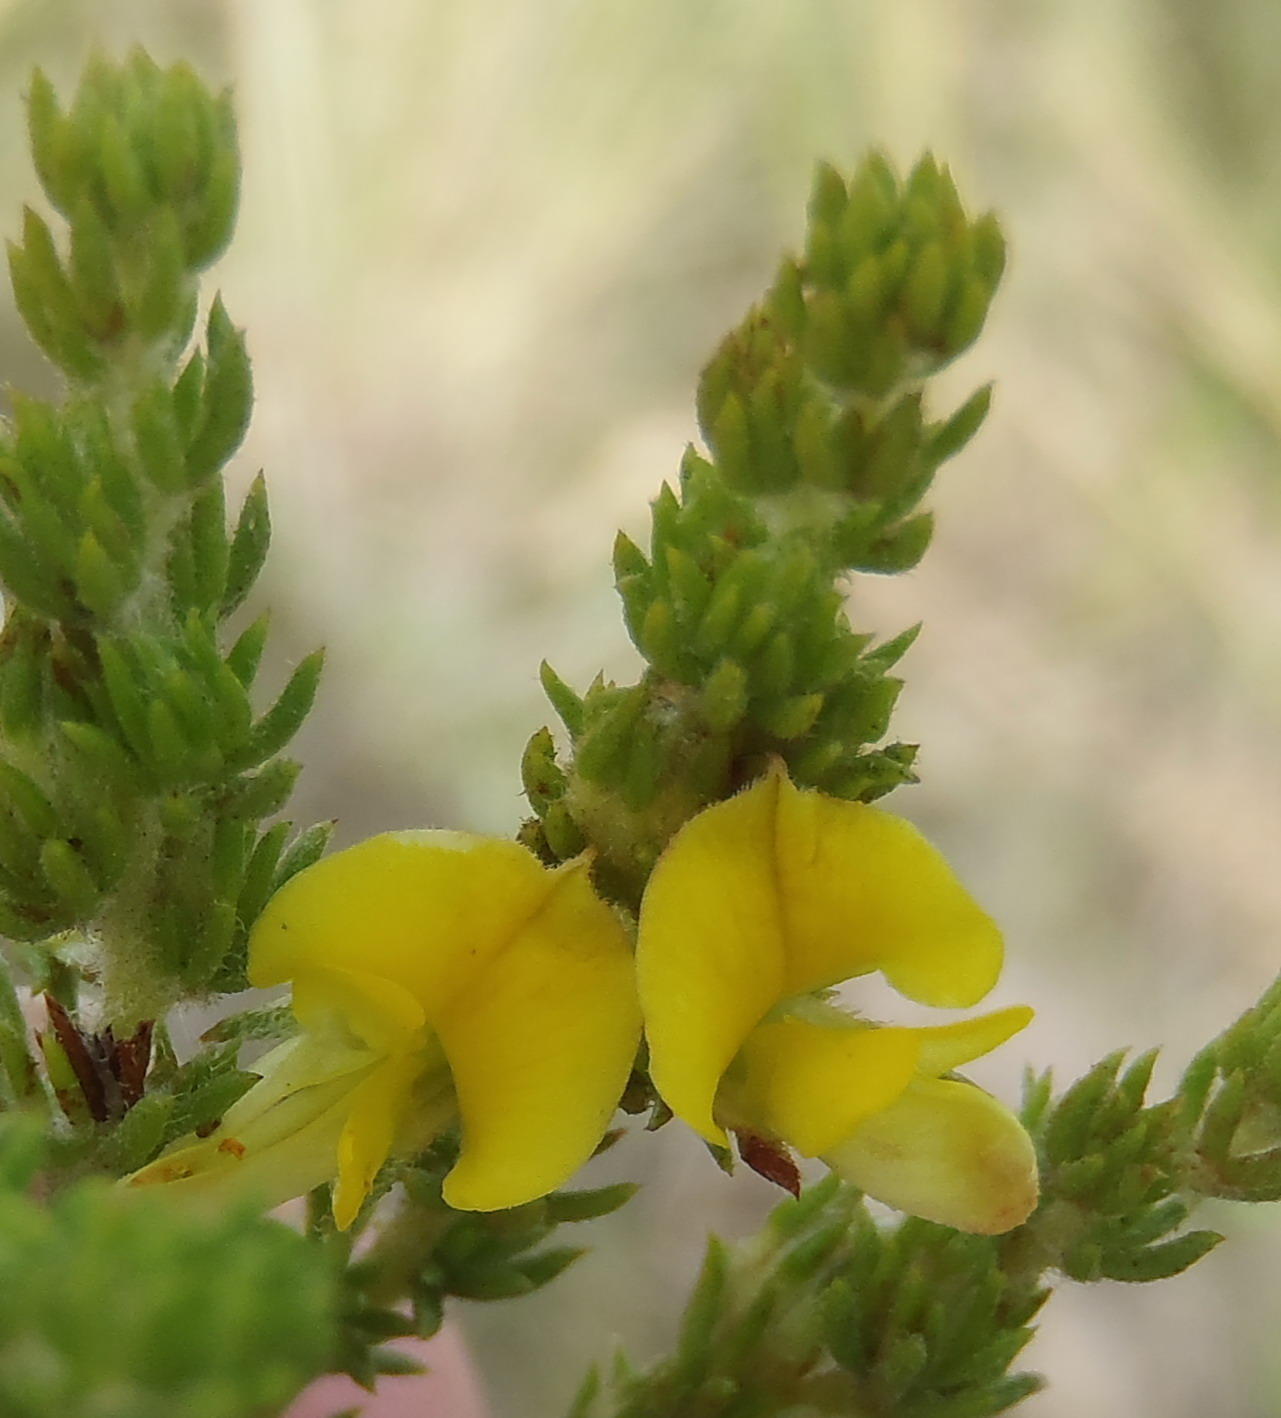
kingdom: Plantae
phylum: Tracheophyta
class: Magnoliopsida
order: Fabales
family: Fabaceae
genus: Aspalathus
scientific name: Aspalathus opaca
